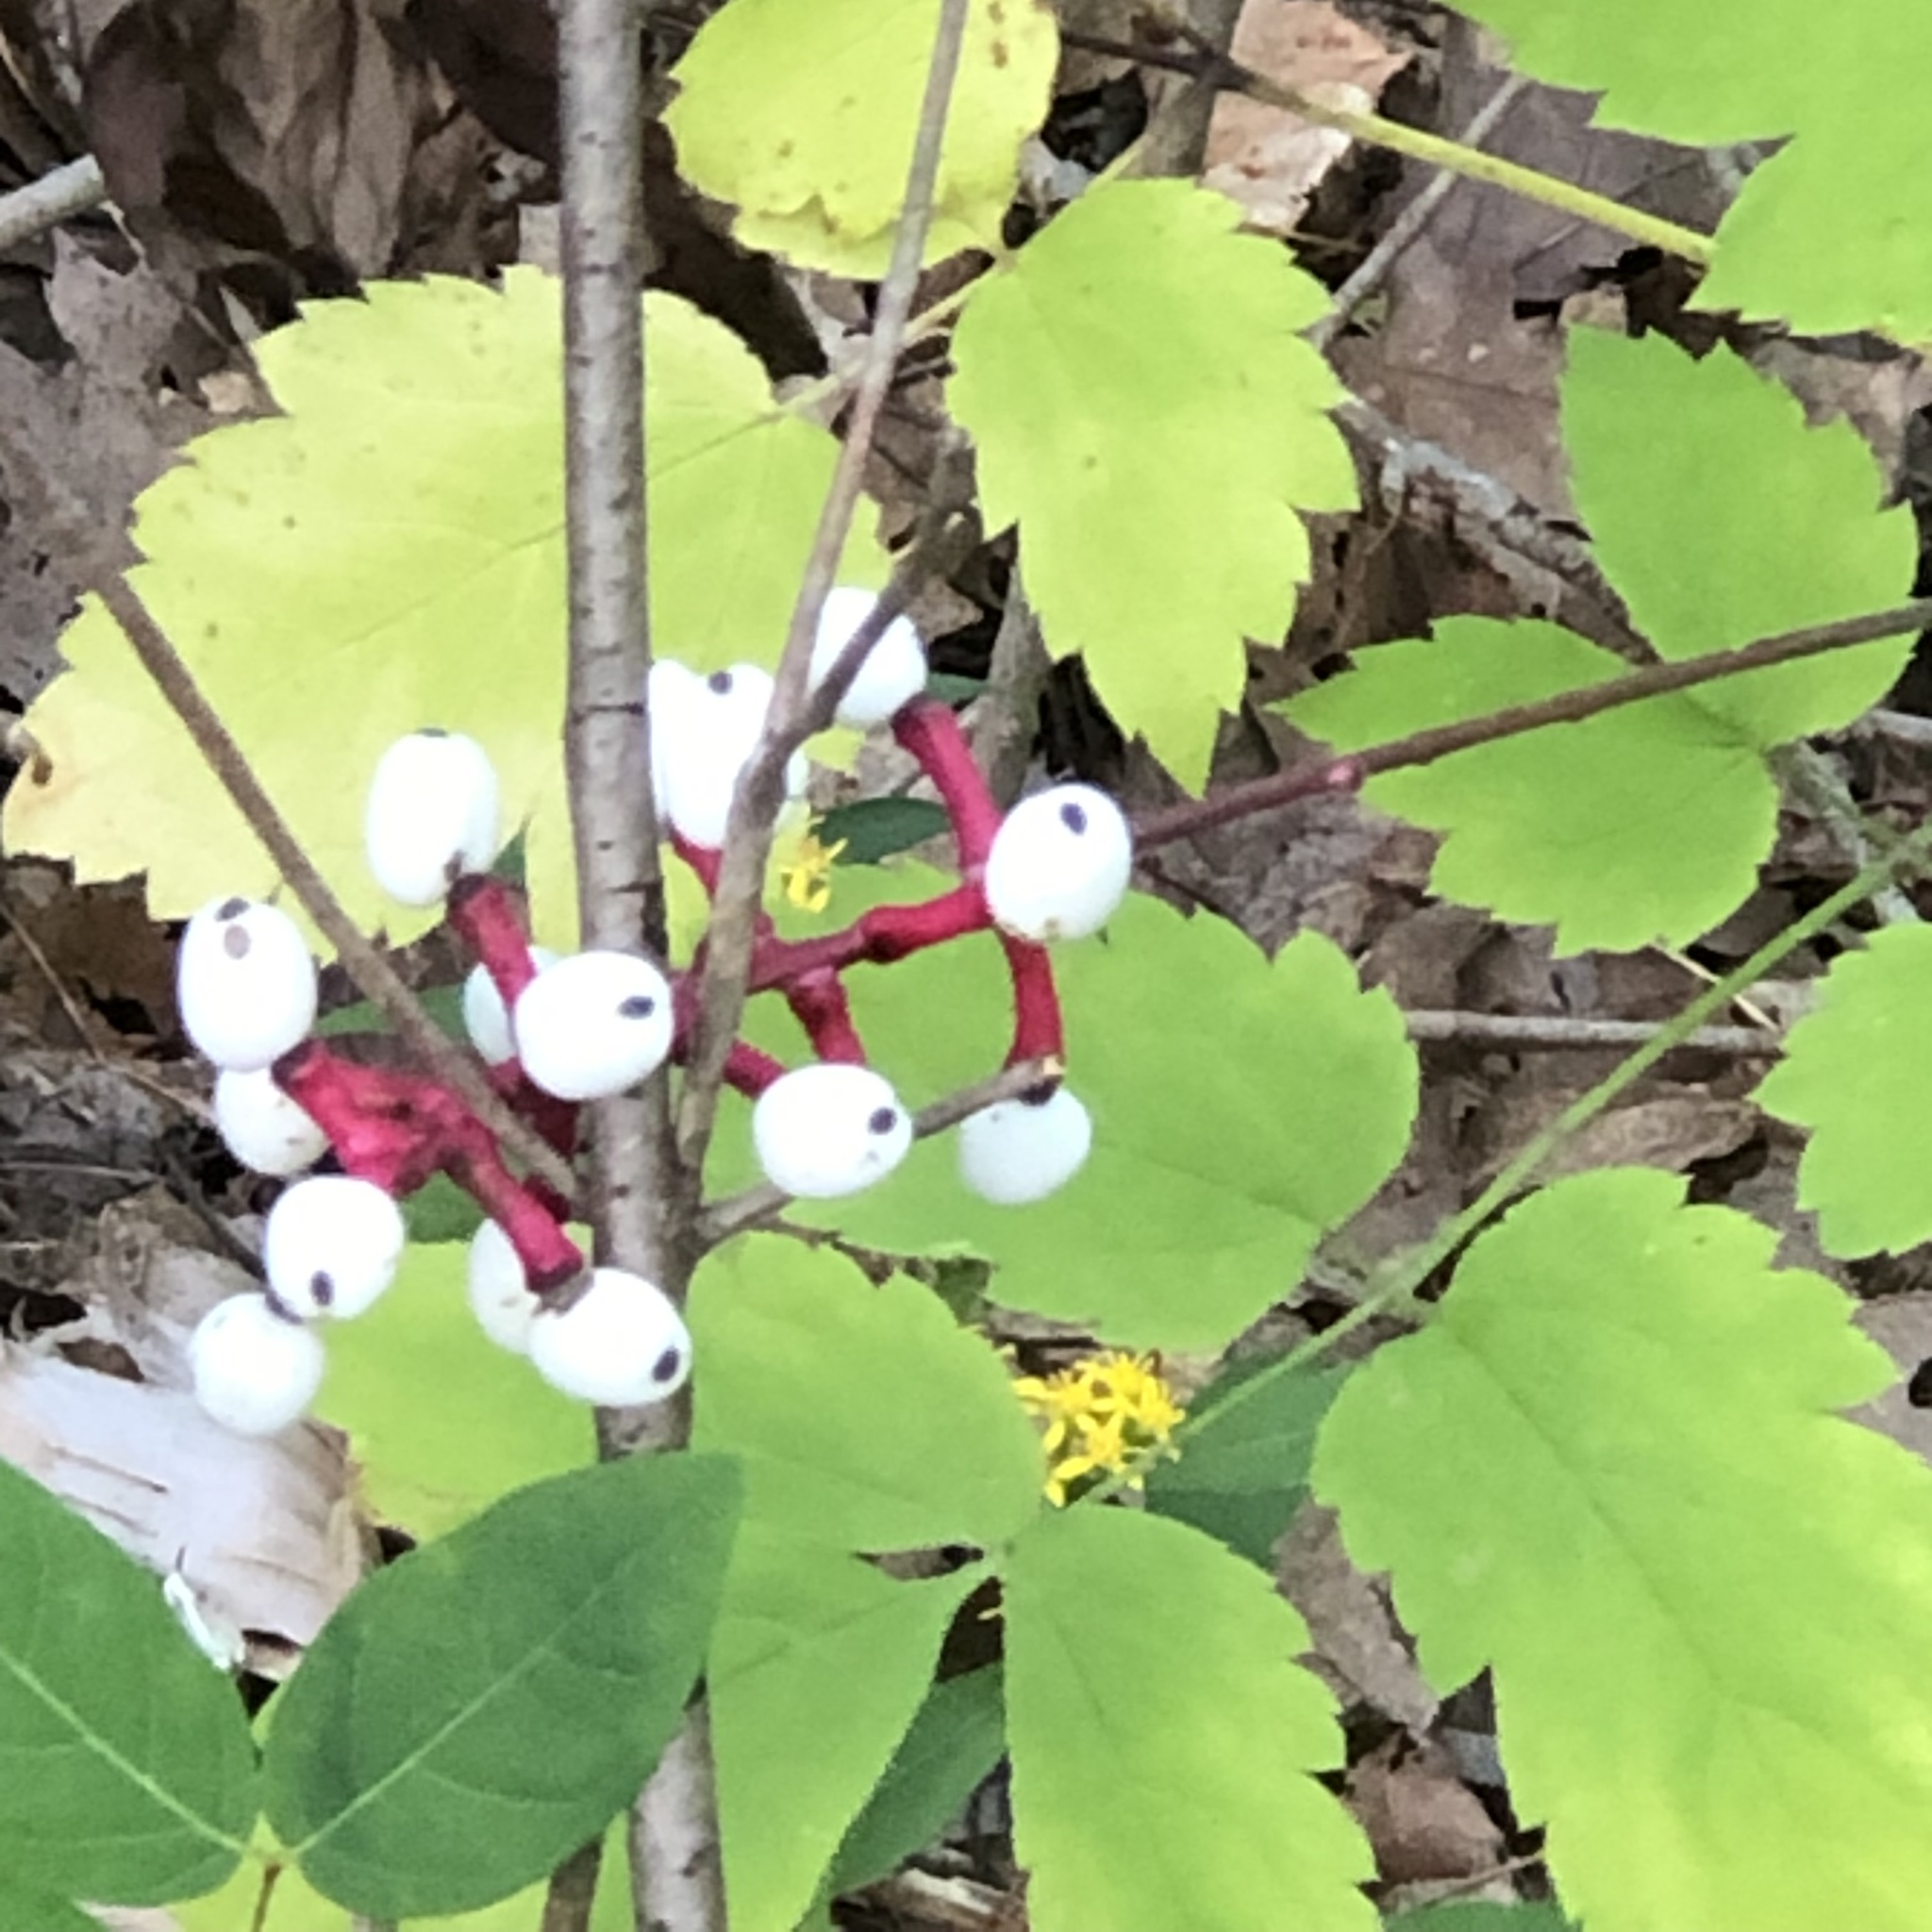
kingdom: Plantae
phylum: Tracheophyta
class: Magnoliopsida
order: Ranunculales
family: Ranunculaceae
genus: Actaea
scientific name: Actaea pachypoda
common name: Doll's-eyes
